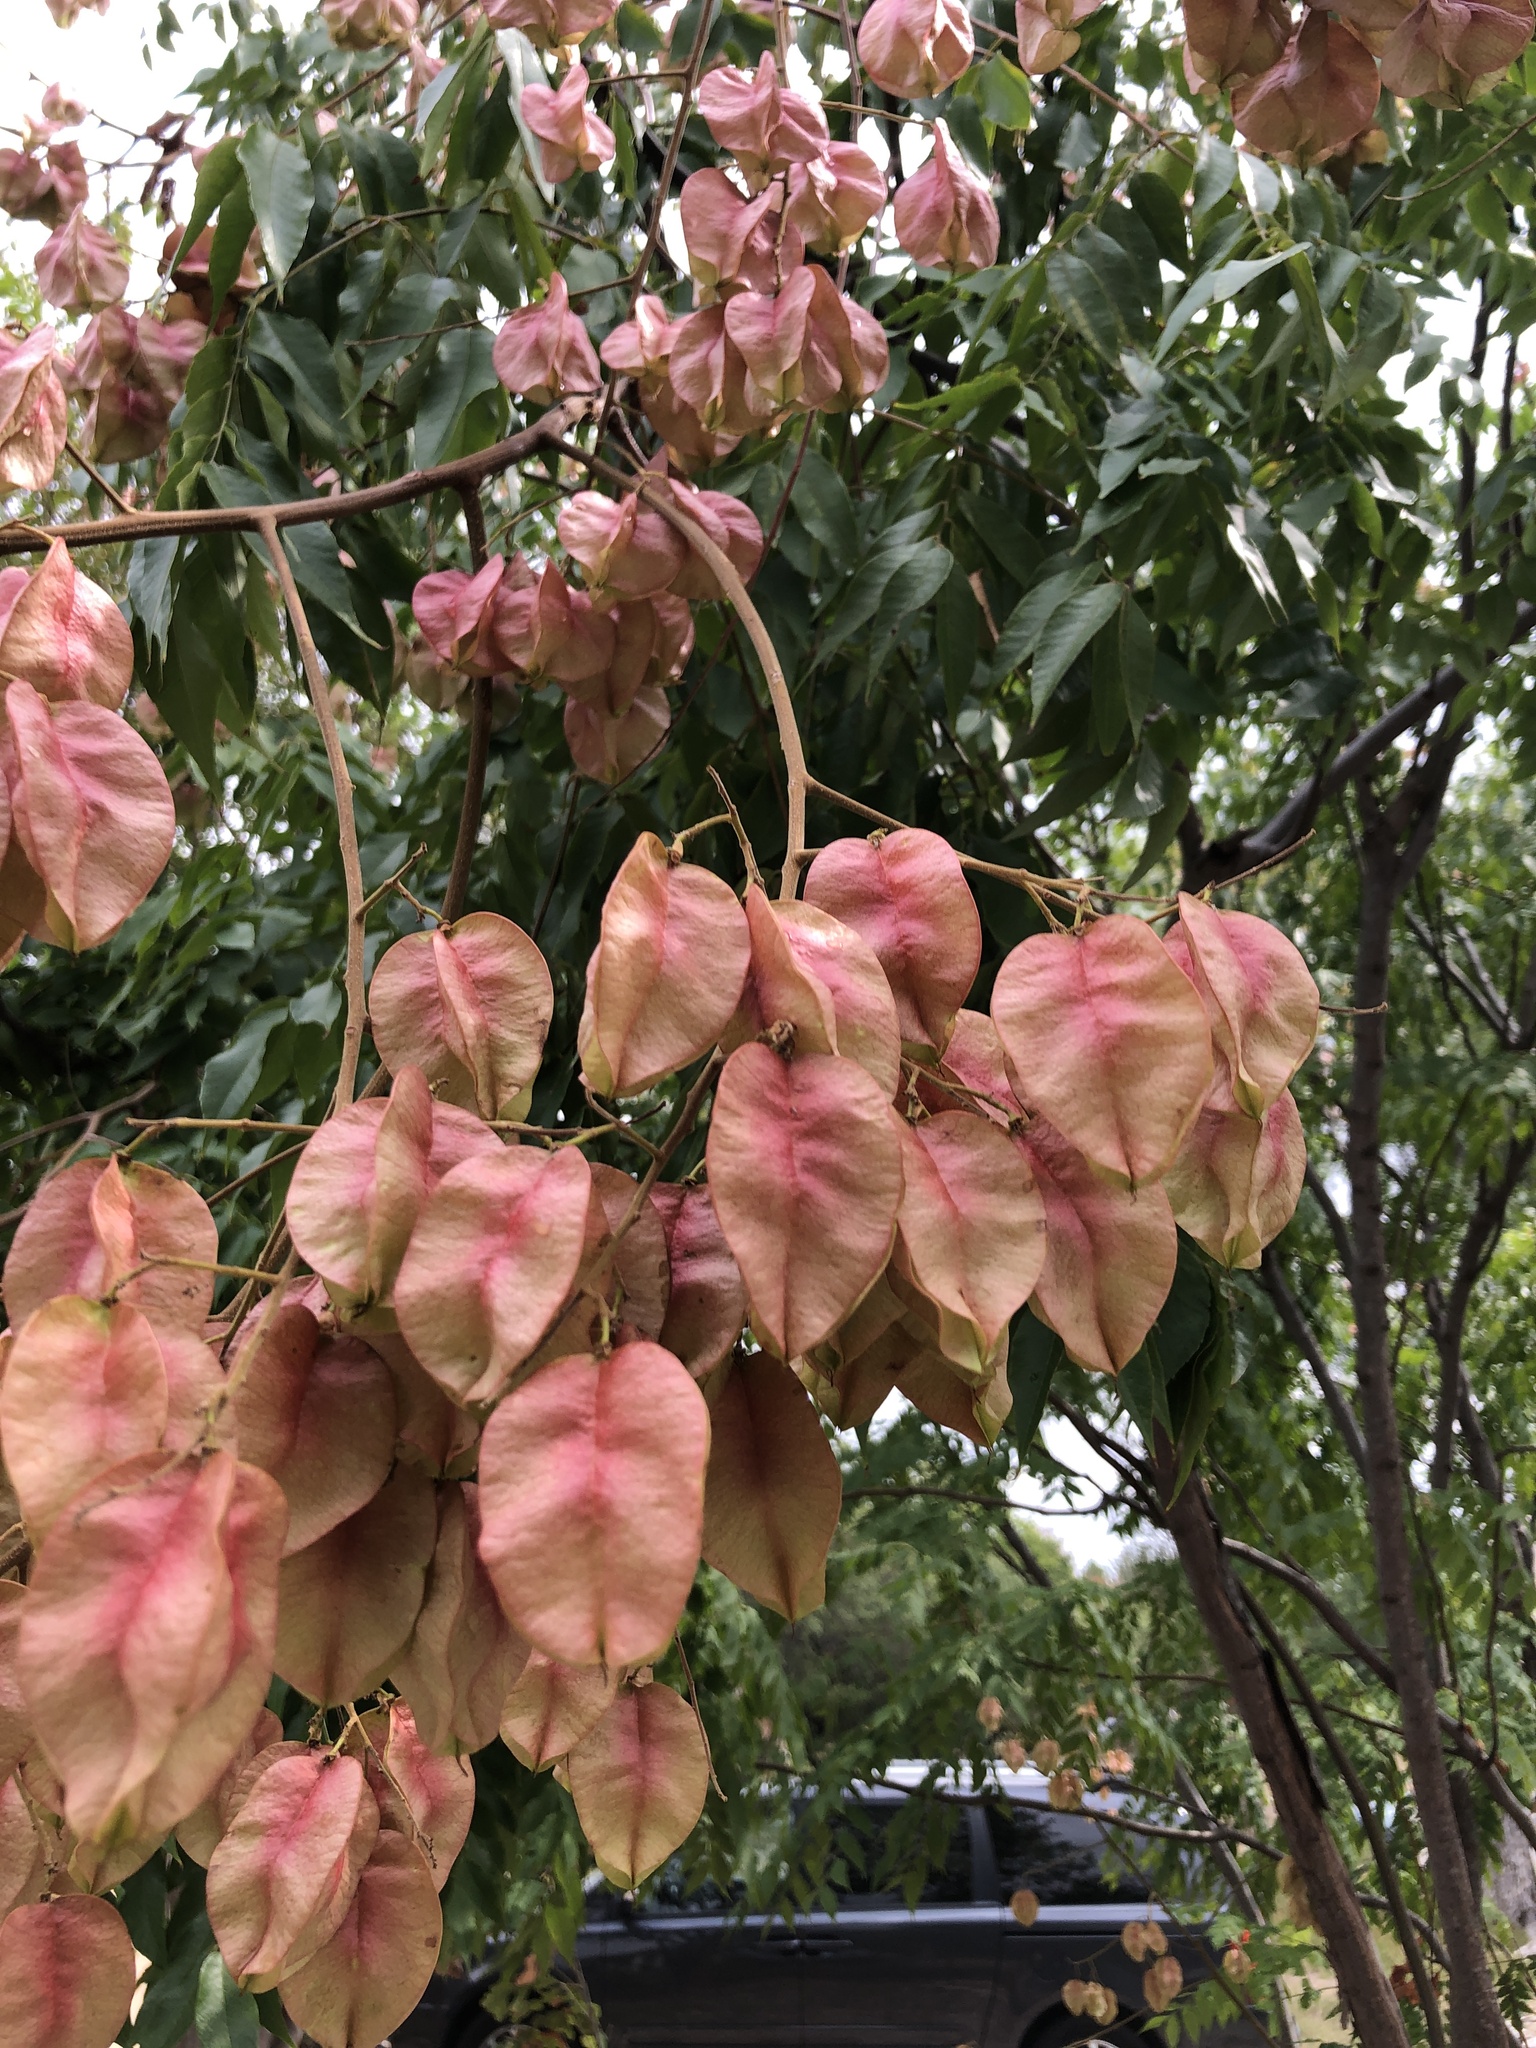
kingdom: Plantae
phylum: Tracheophyta
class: Magnoliopsida
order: Sapindales
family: Sapindaceae
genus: Koelreuteria
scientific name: Koelreuteria paniculata
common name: Pride-of-india
